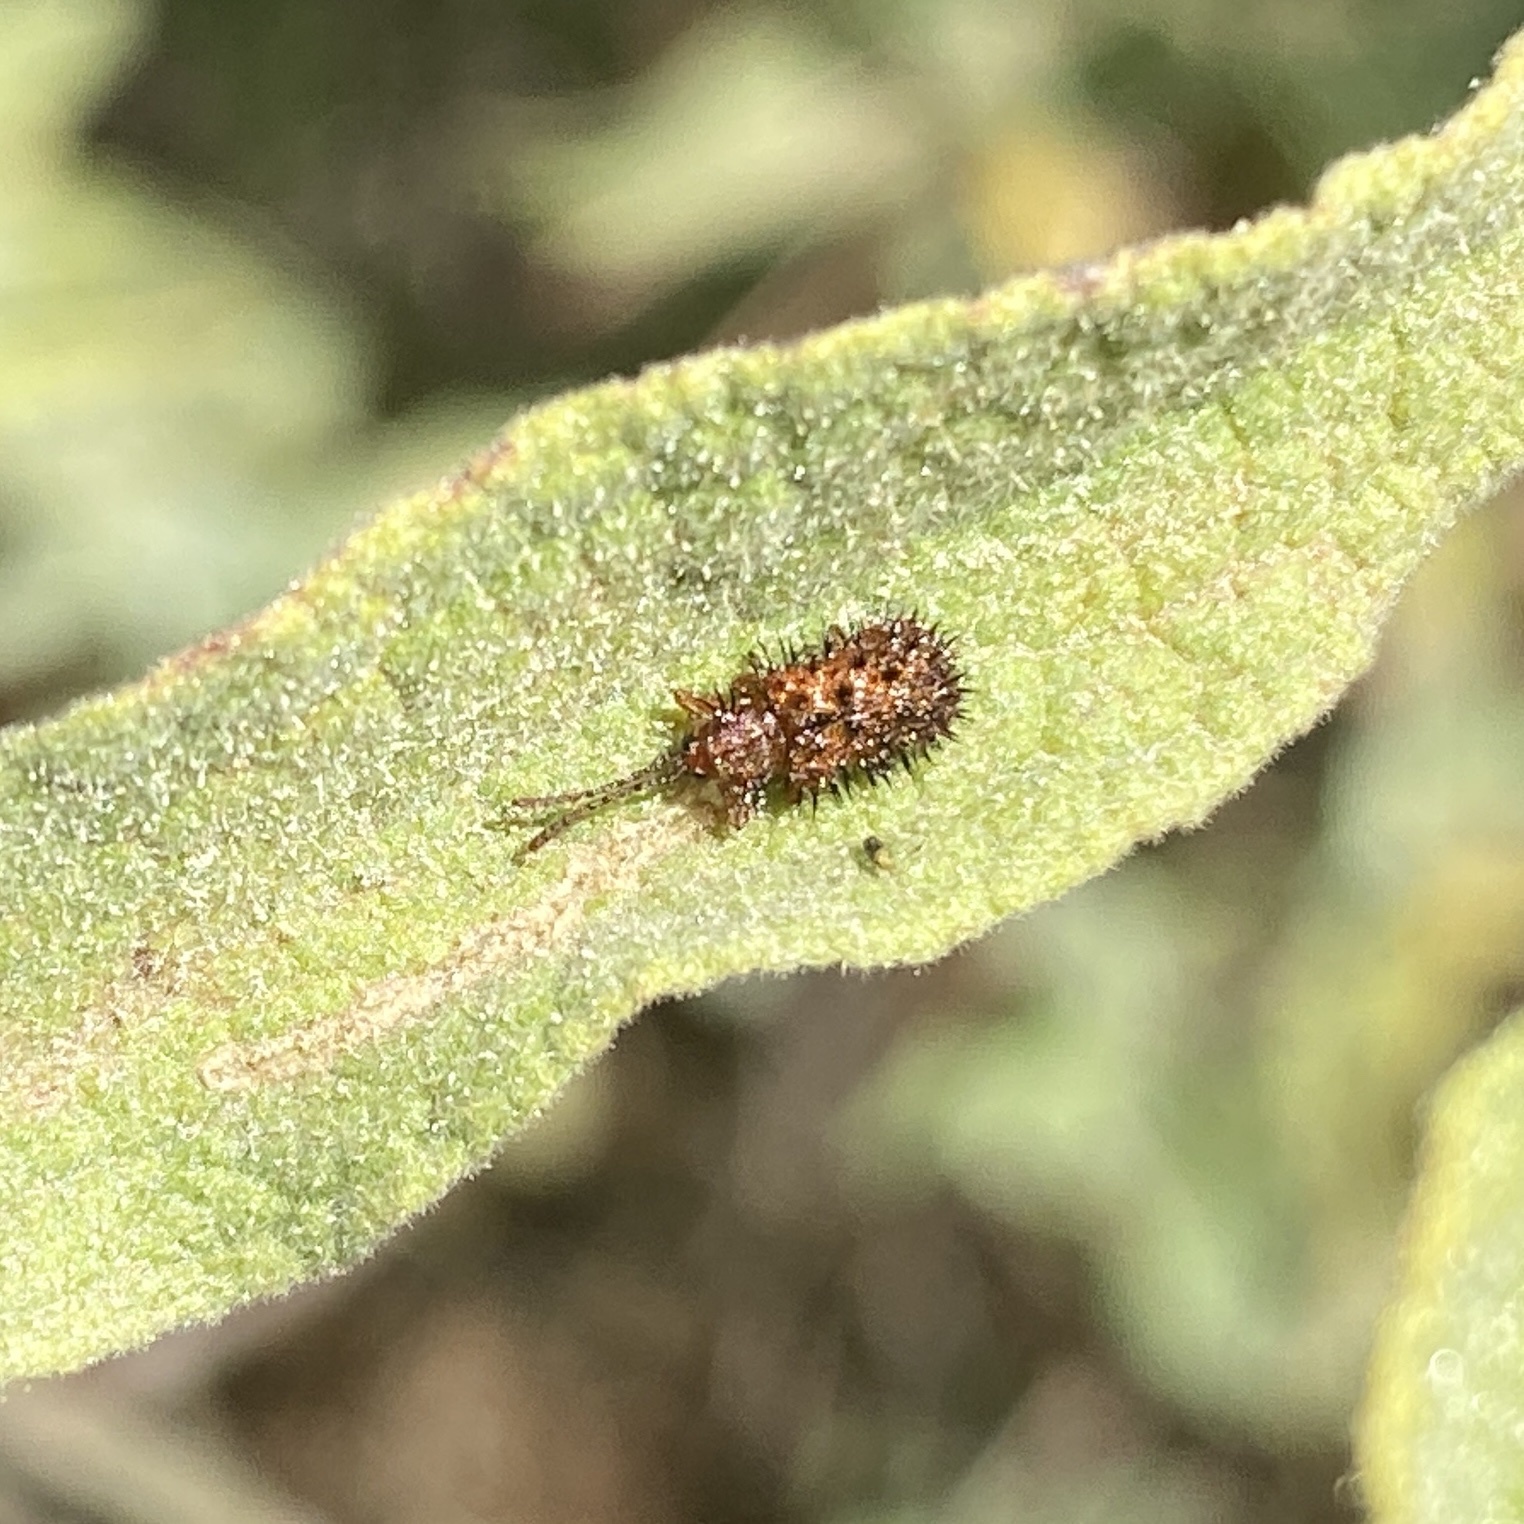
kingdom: Animalia
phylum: Arthropoda
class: Insecta
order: Coleoptera
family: Chrysomelidae
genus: Dicladispa
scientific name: Dicladispa testacea
